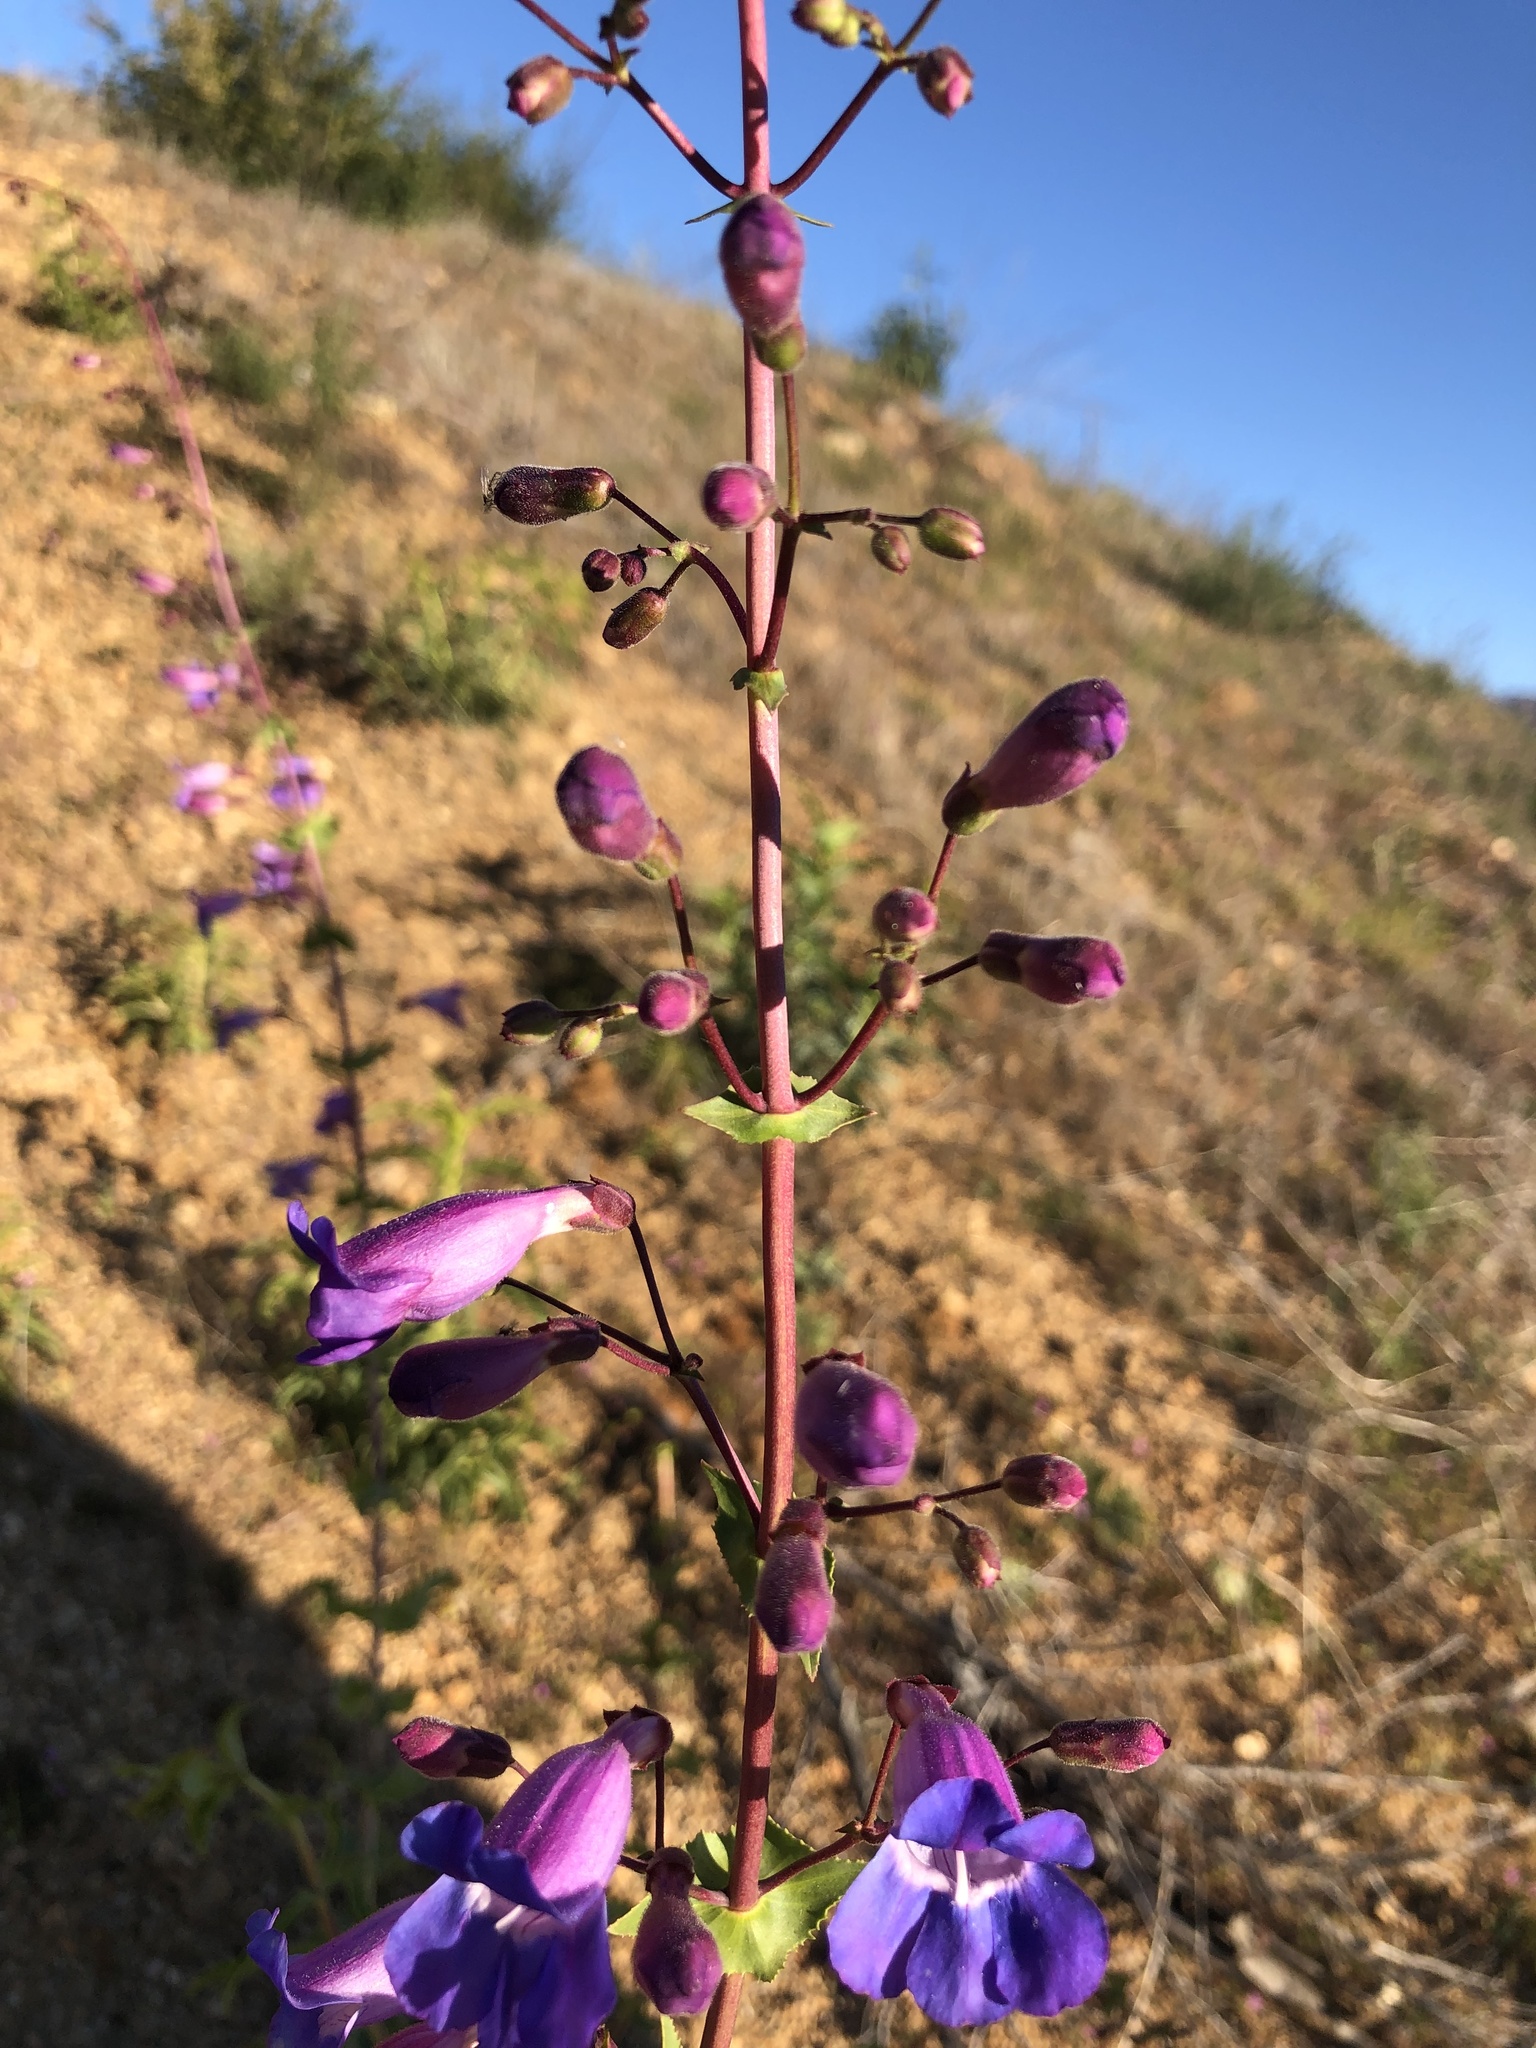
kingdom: Plantae
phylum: Tracheophyta
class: Magnoliopsida
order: Lamiales
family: Plantaginaceae
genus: Penstemon
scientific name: Penstemon spectabilis
